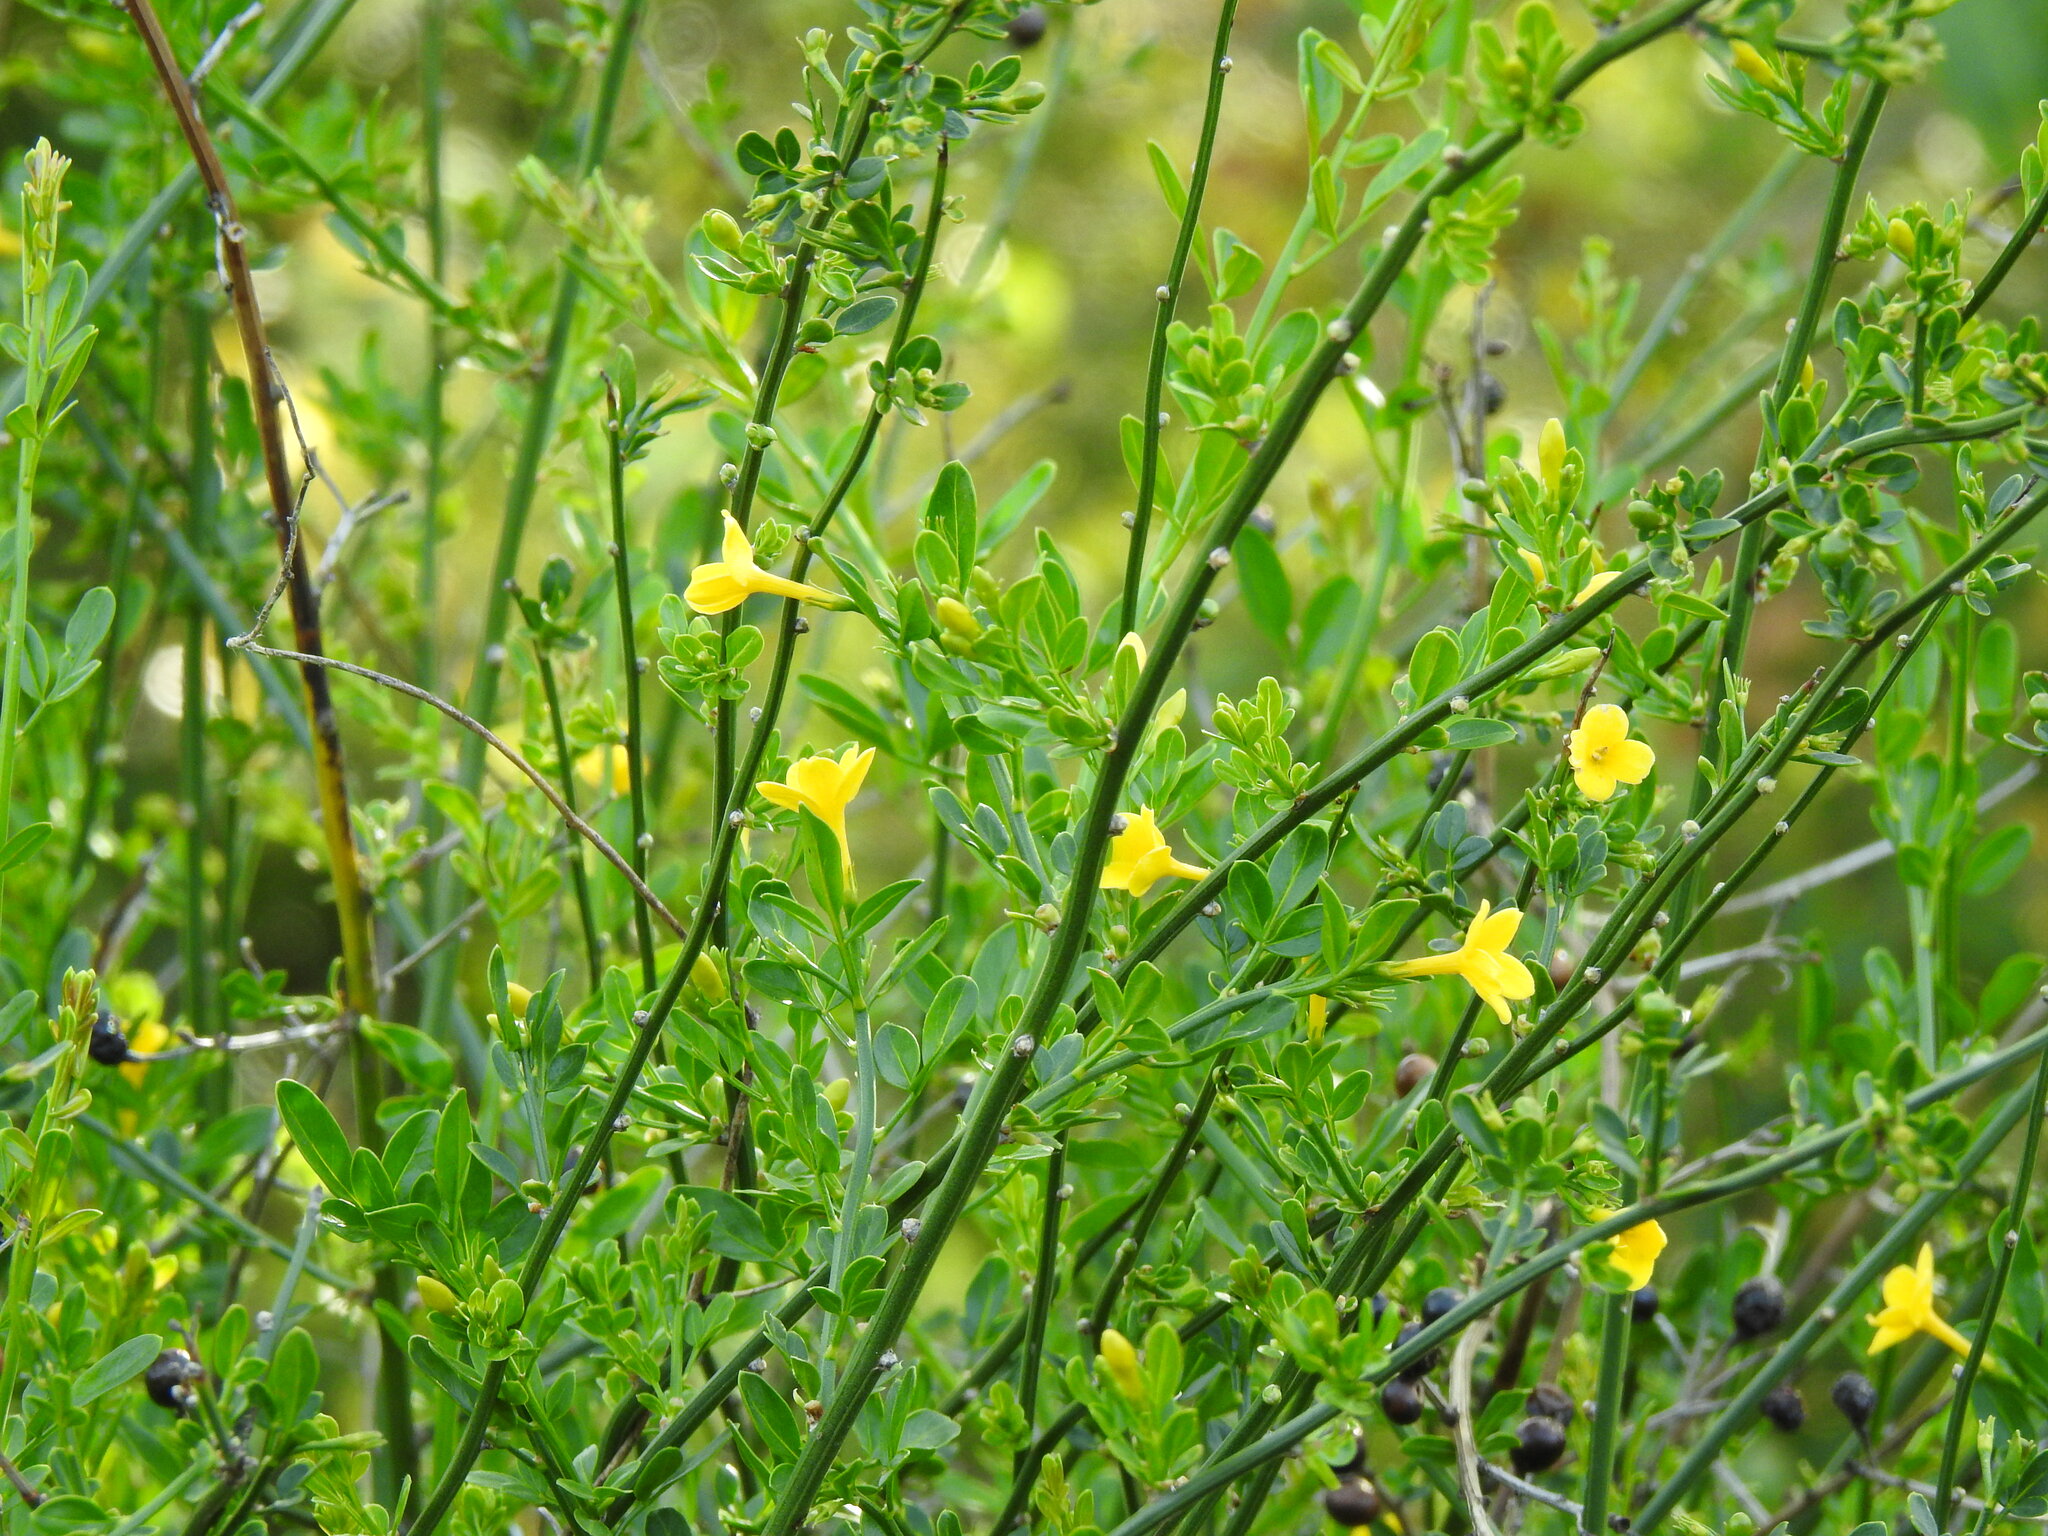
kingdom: Plantae
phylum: Tracheophyta
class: Magnoliopsida
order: Lamiales
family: Oleaceae
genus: Chrysojasminum
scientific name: Chrysojasminum fruticans
